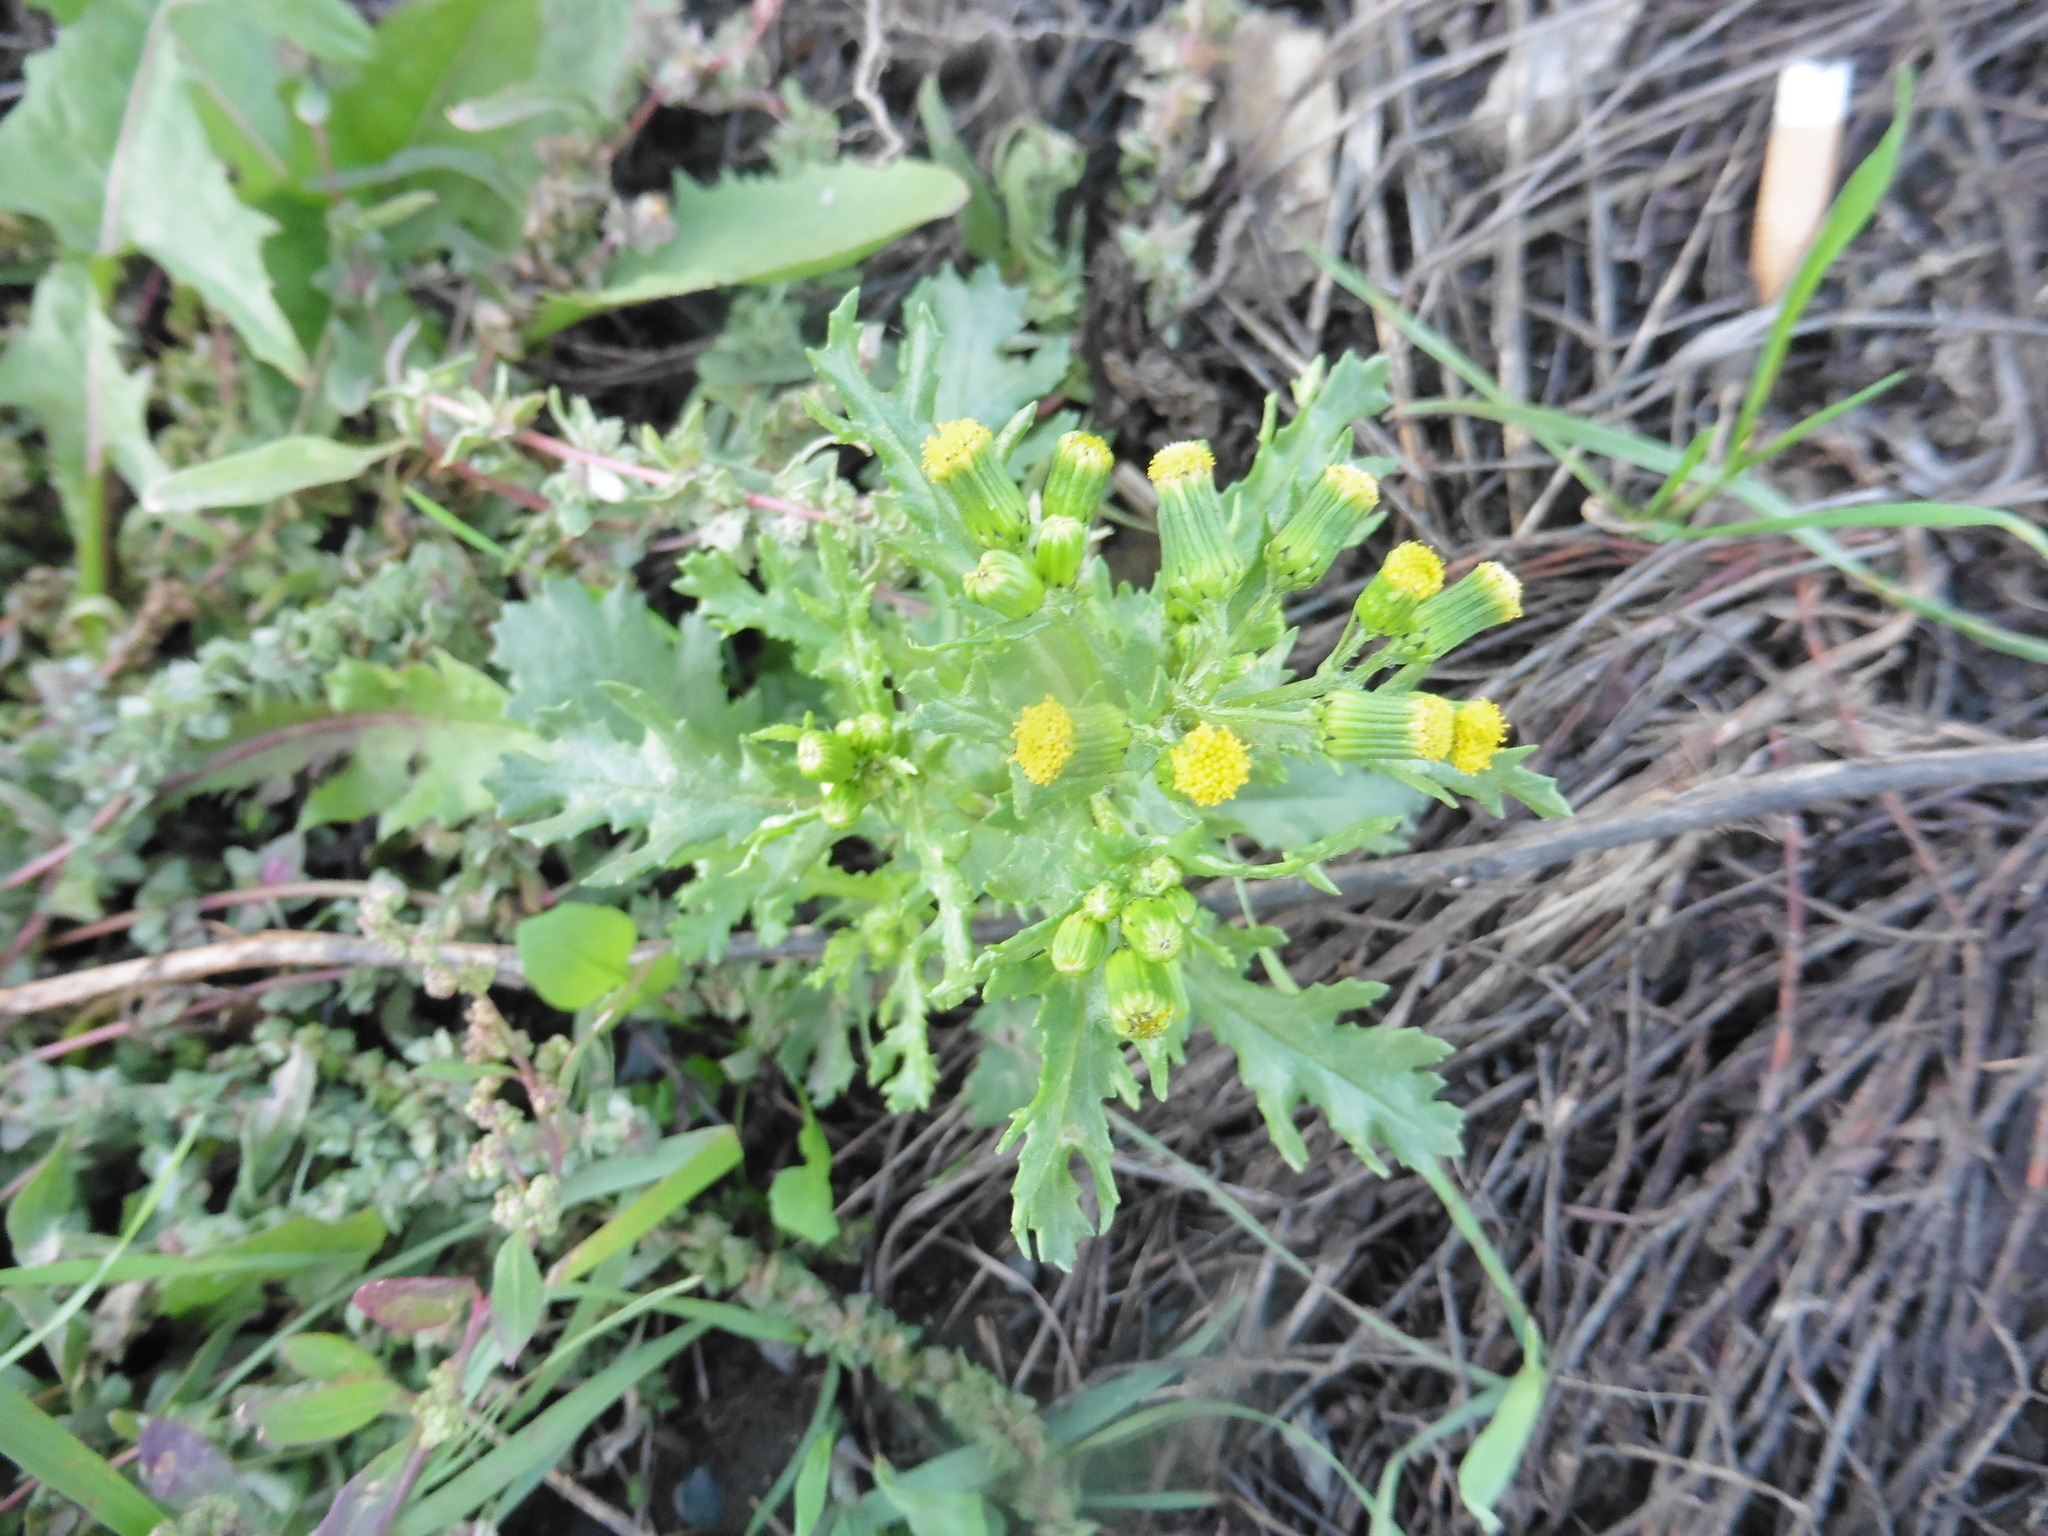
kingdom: Plantae
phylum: Tracheophyta
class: Magnoliopsida
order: Asterales
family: Asteraceae
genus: Senecio
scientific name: Senecio vulgaris
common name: Old-man-in-the-spring
